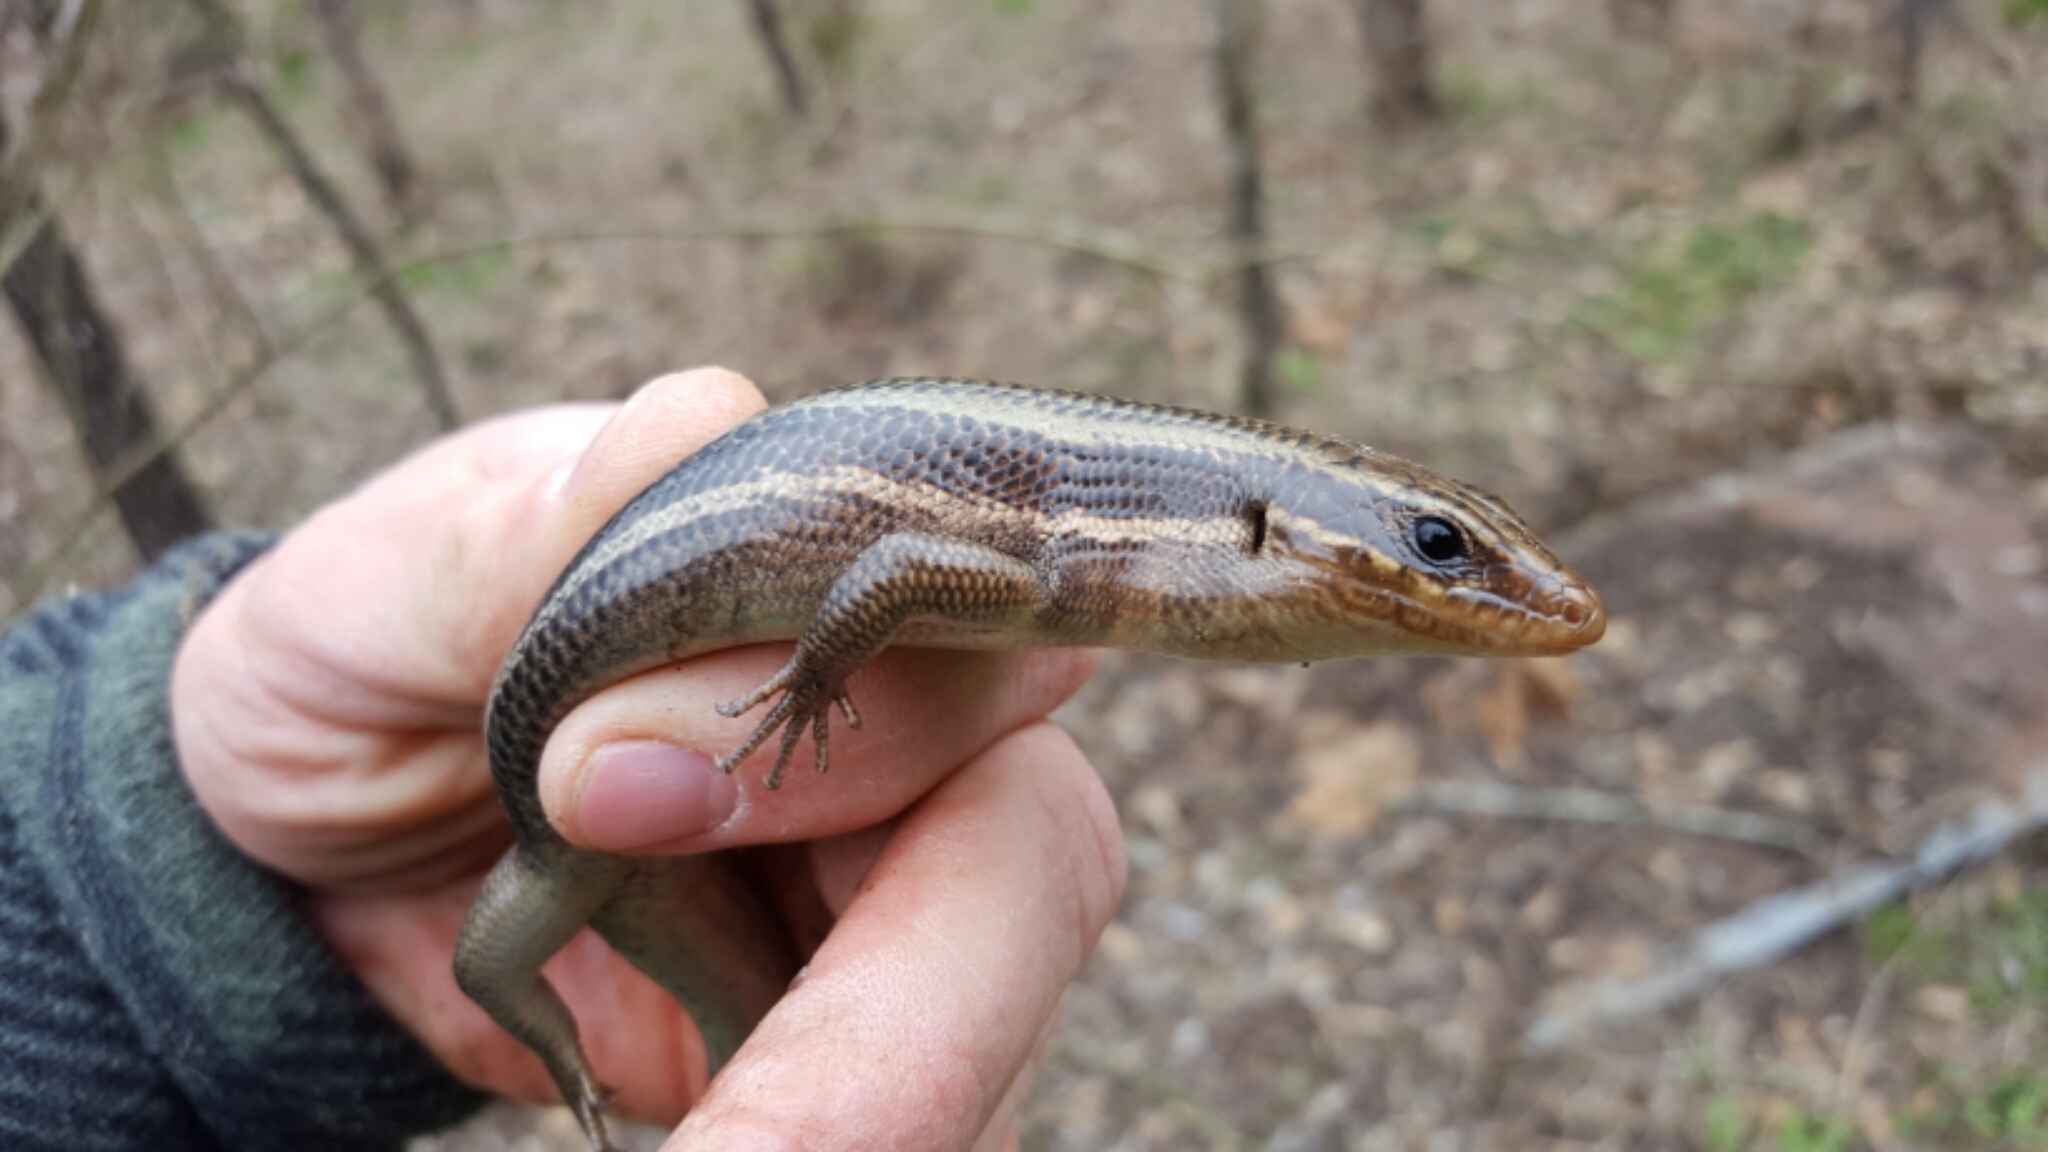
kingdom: Animalia
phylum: Chordata
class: Squamata
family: Scincidae
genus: Plestiodon
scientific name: Plestiodon laticeps
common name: Broadhead skink
